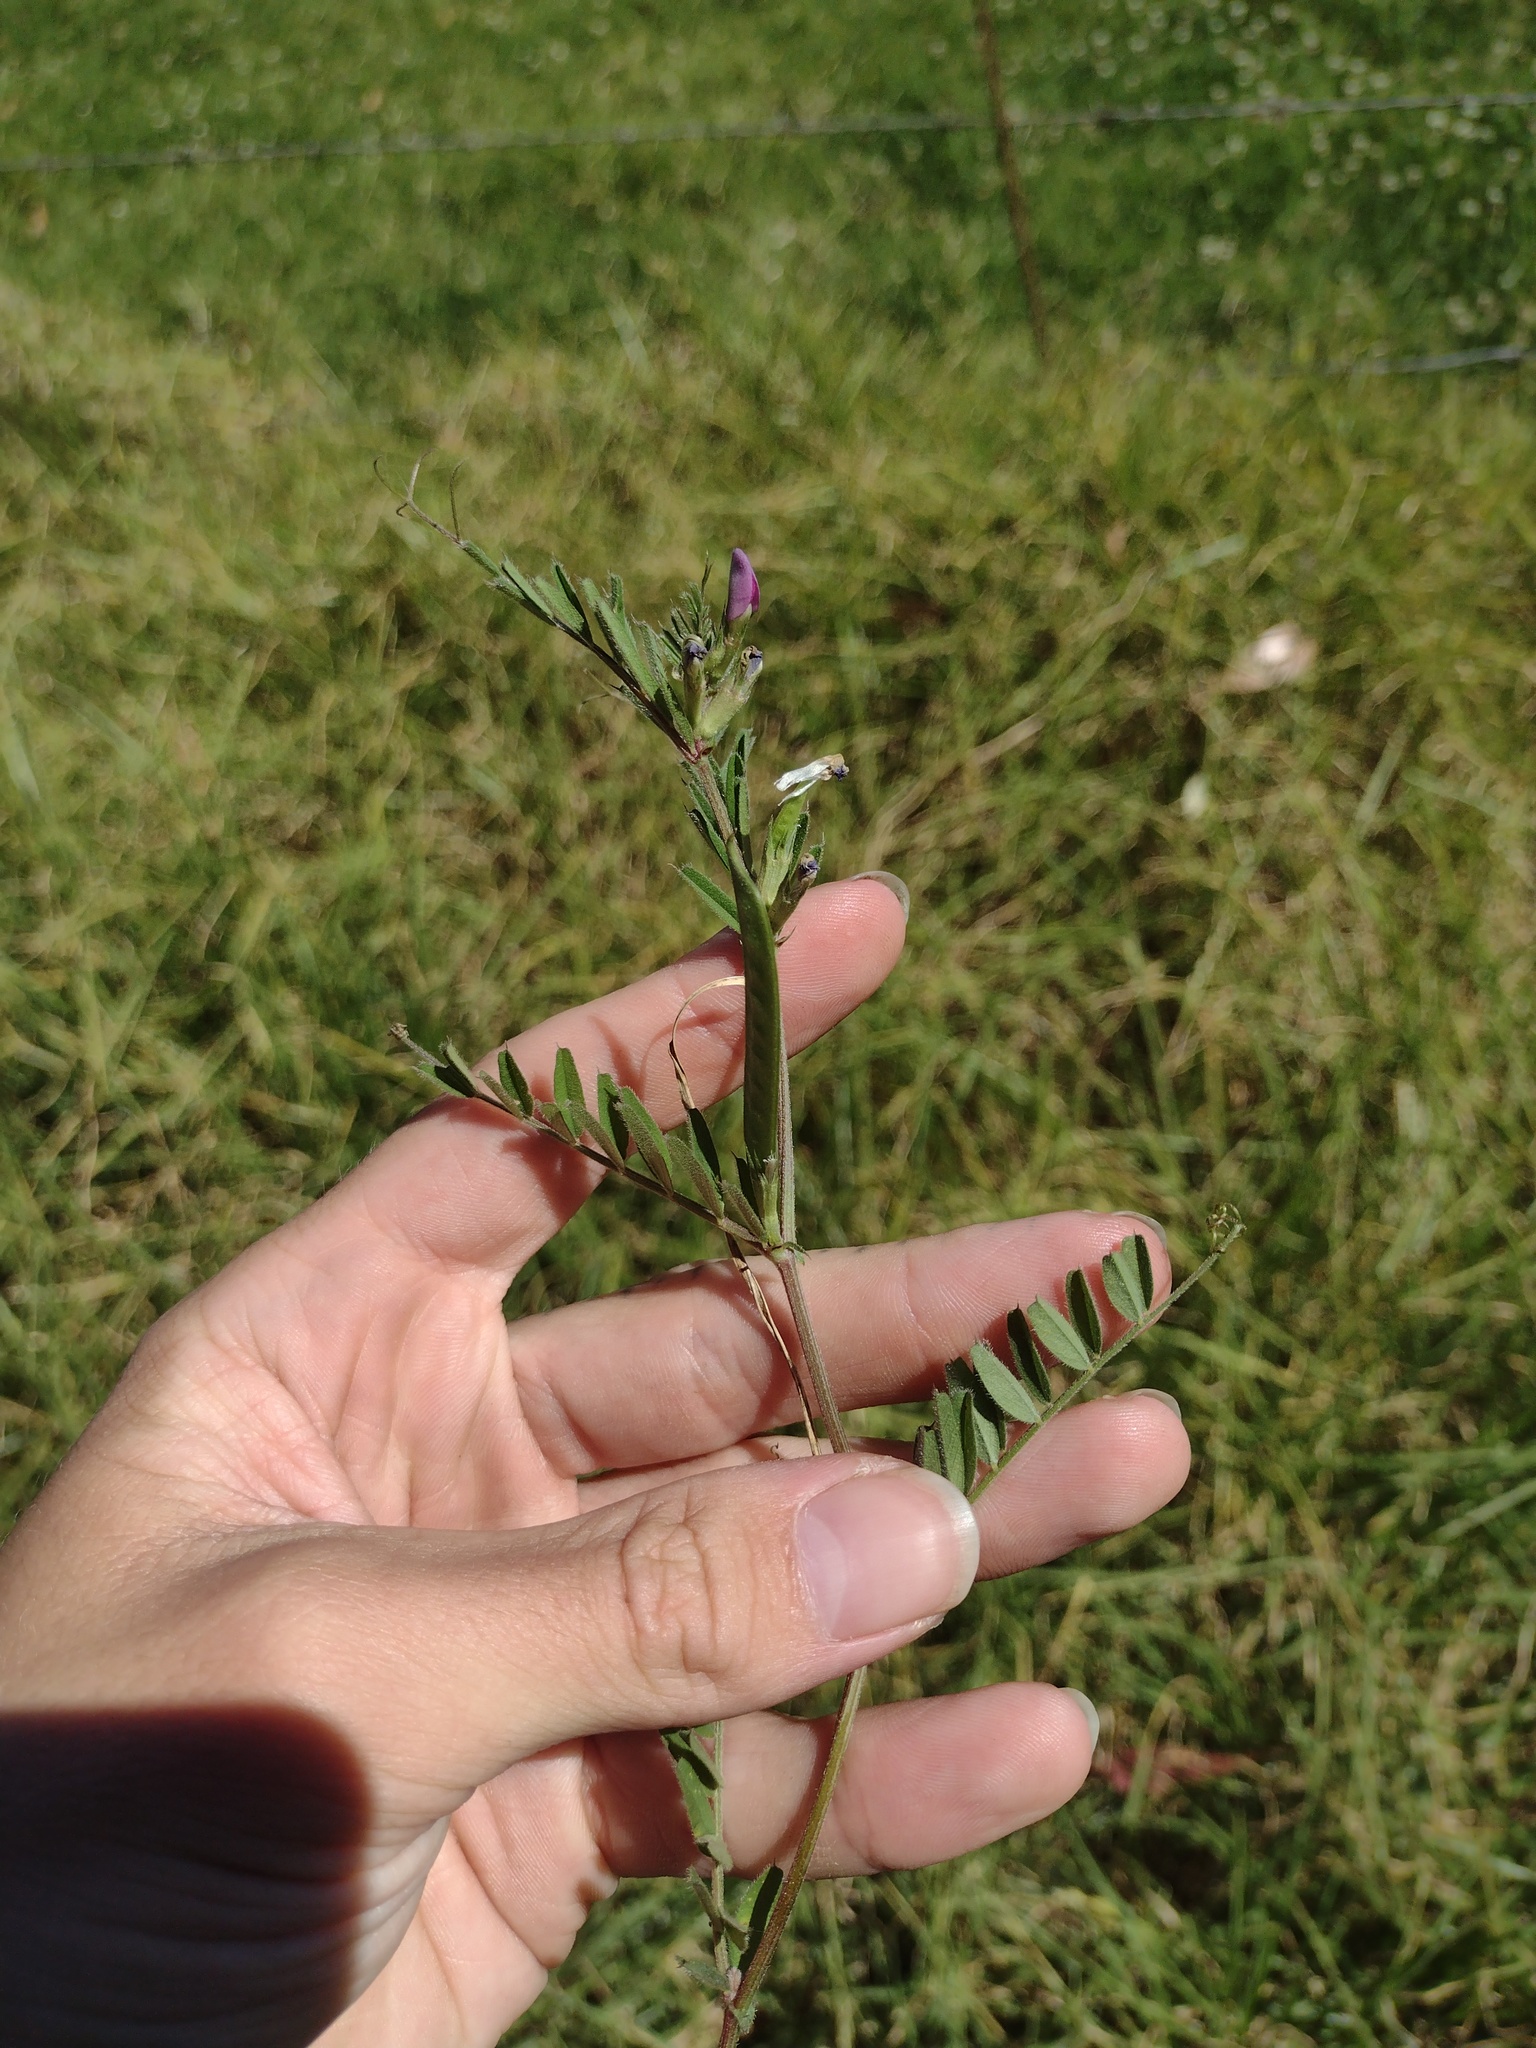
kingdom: Plantae
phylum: Tracheophyta
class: Magnoliopsida
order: Fabales
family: Fabaceae
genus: Vicia
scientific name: Vicia sativa
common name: Garden vetch
